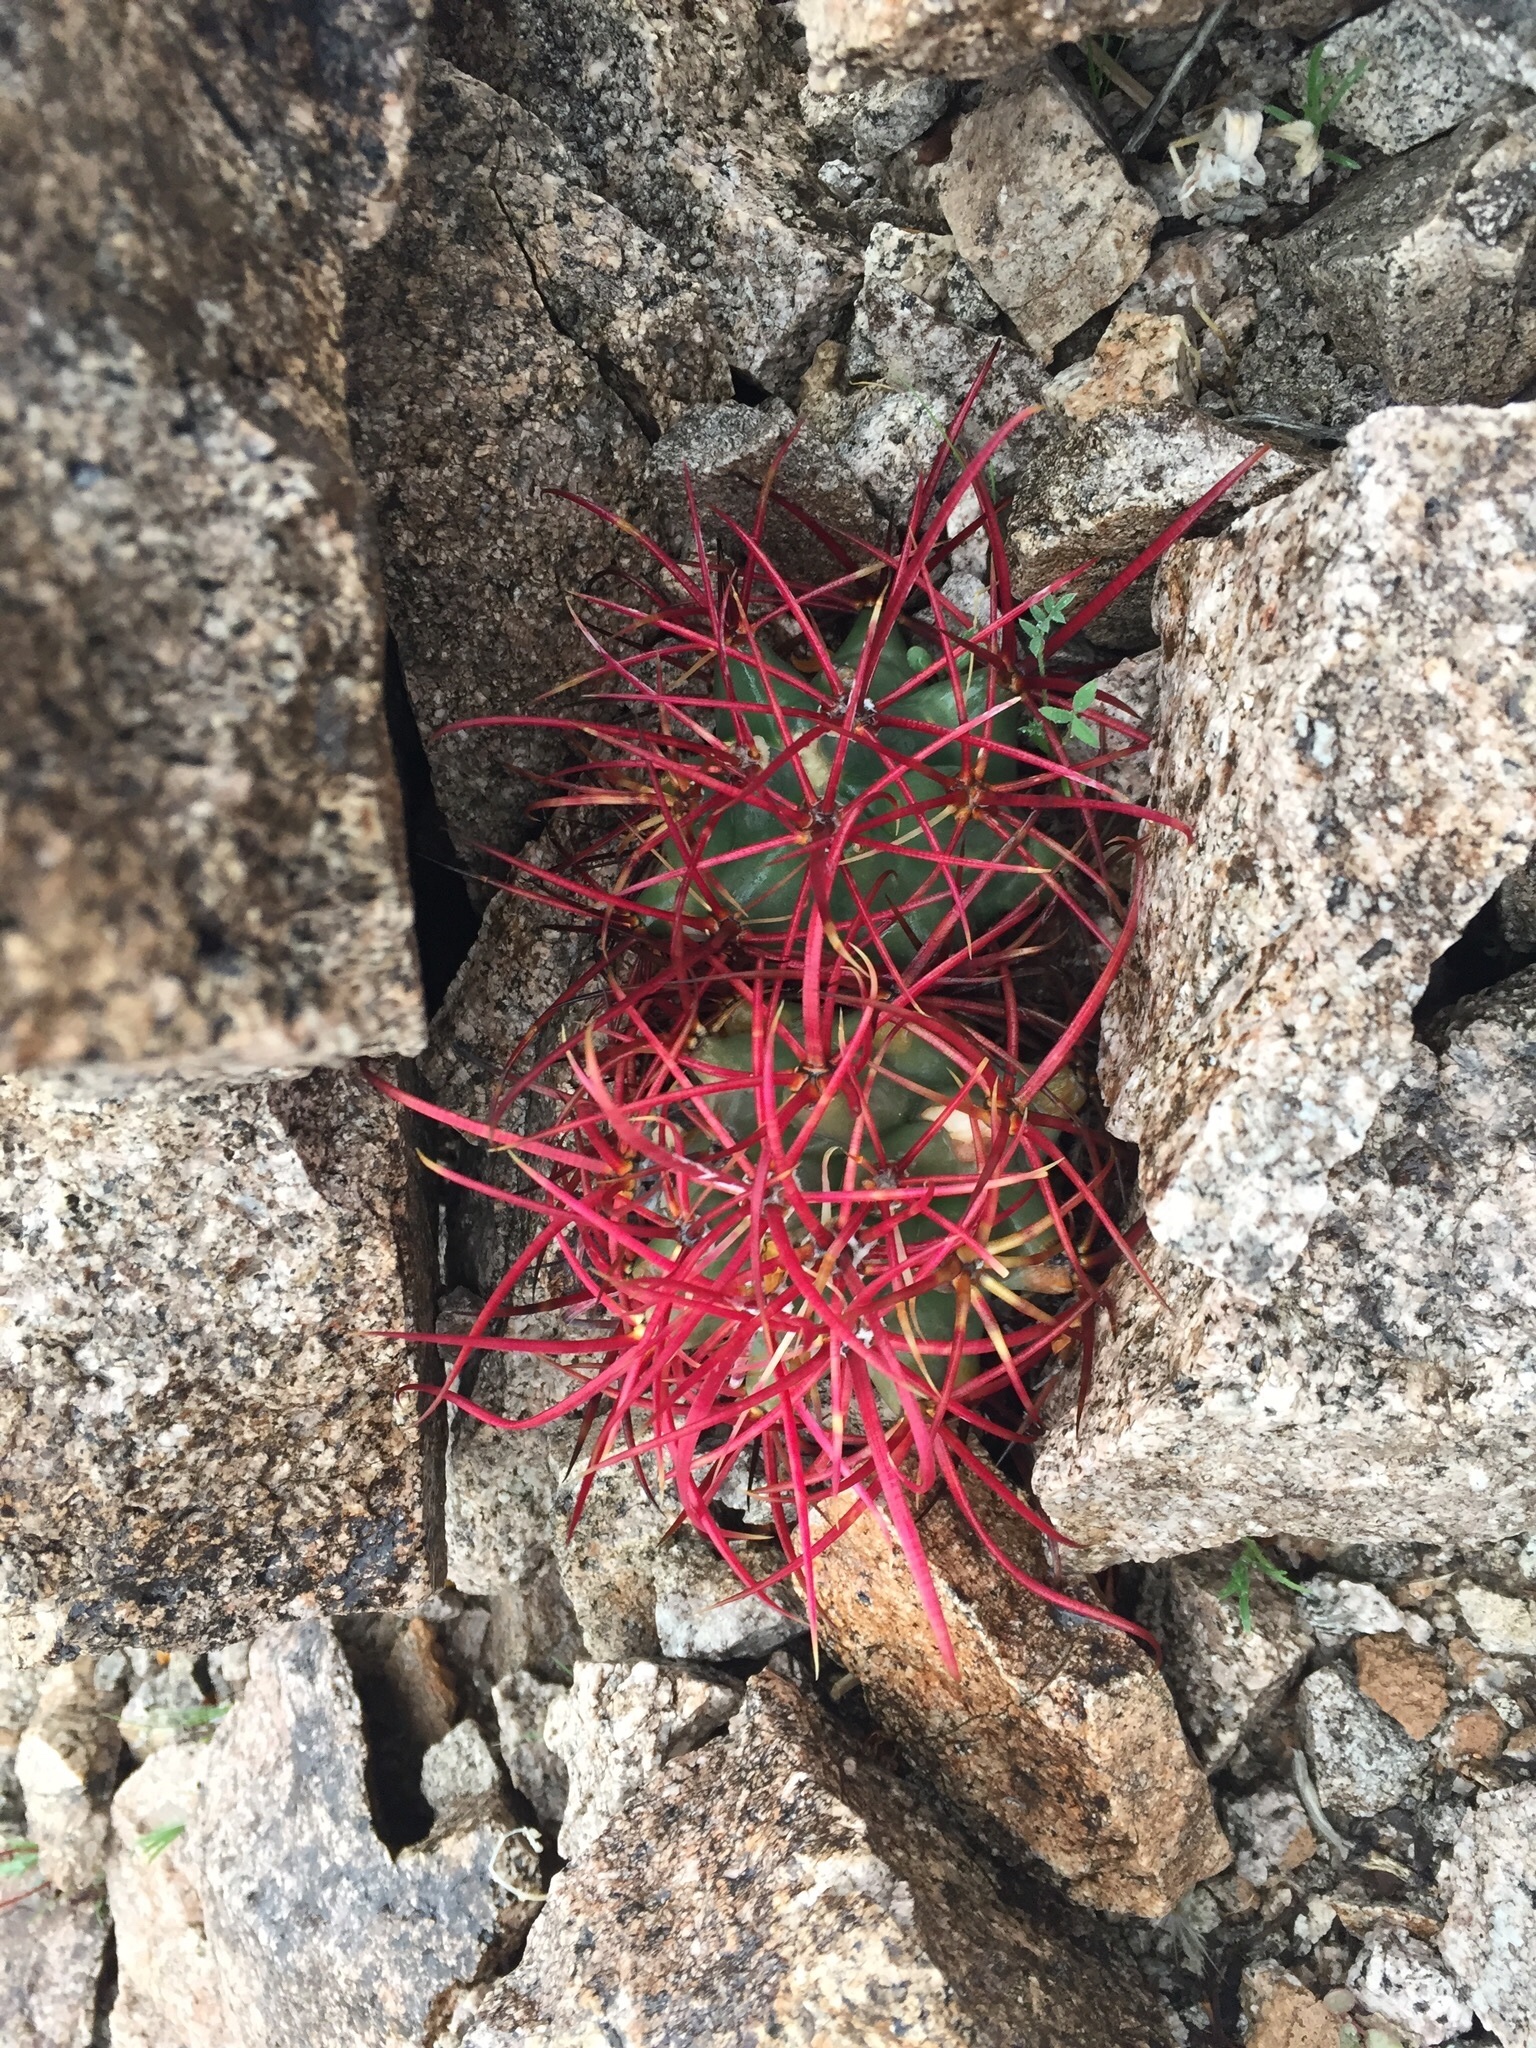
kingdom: Plantae
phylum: Tracheophyta
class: Magnoliopsida
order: Caryophyllales
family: Cactaceae
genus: Ferocactus
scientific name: Ferocactus cylindraceus
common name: California barrel cactus
